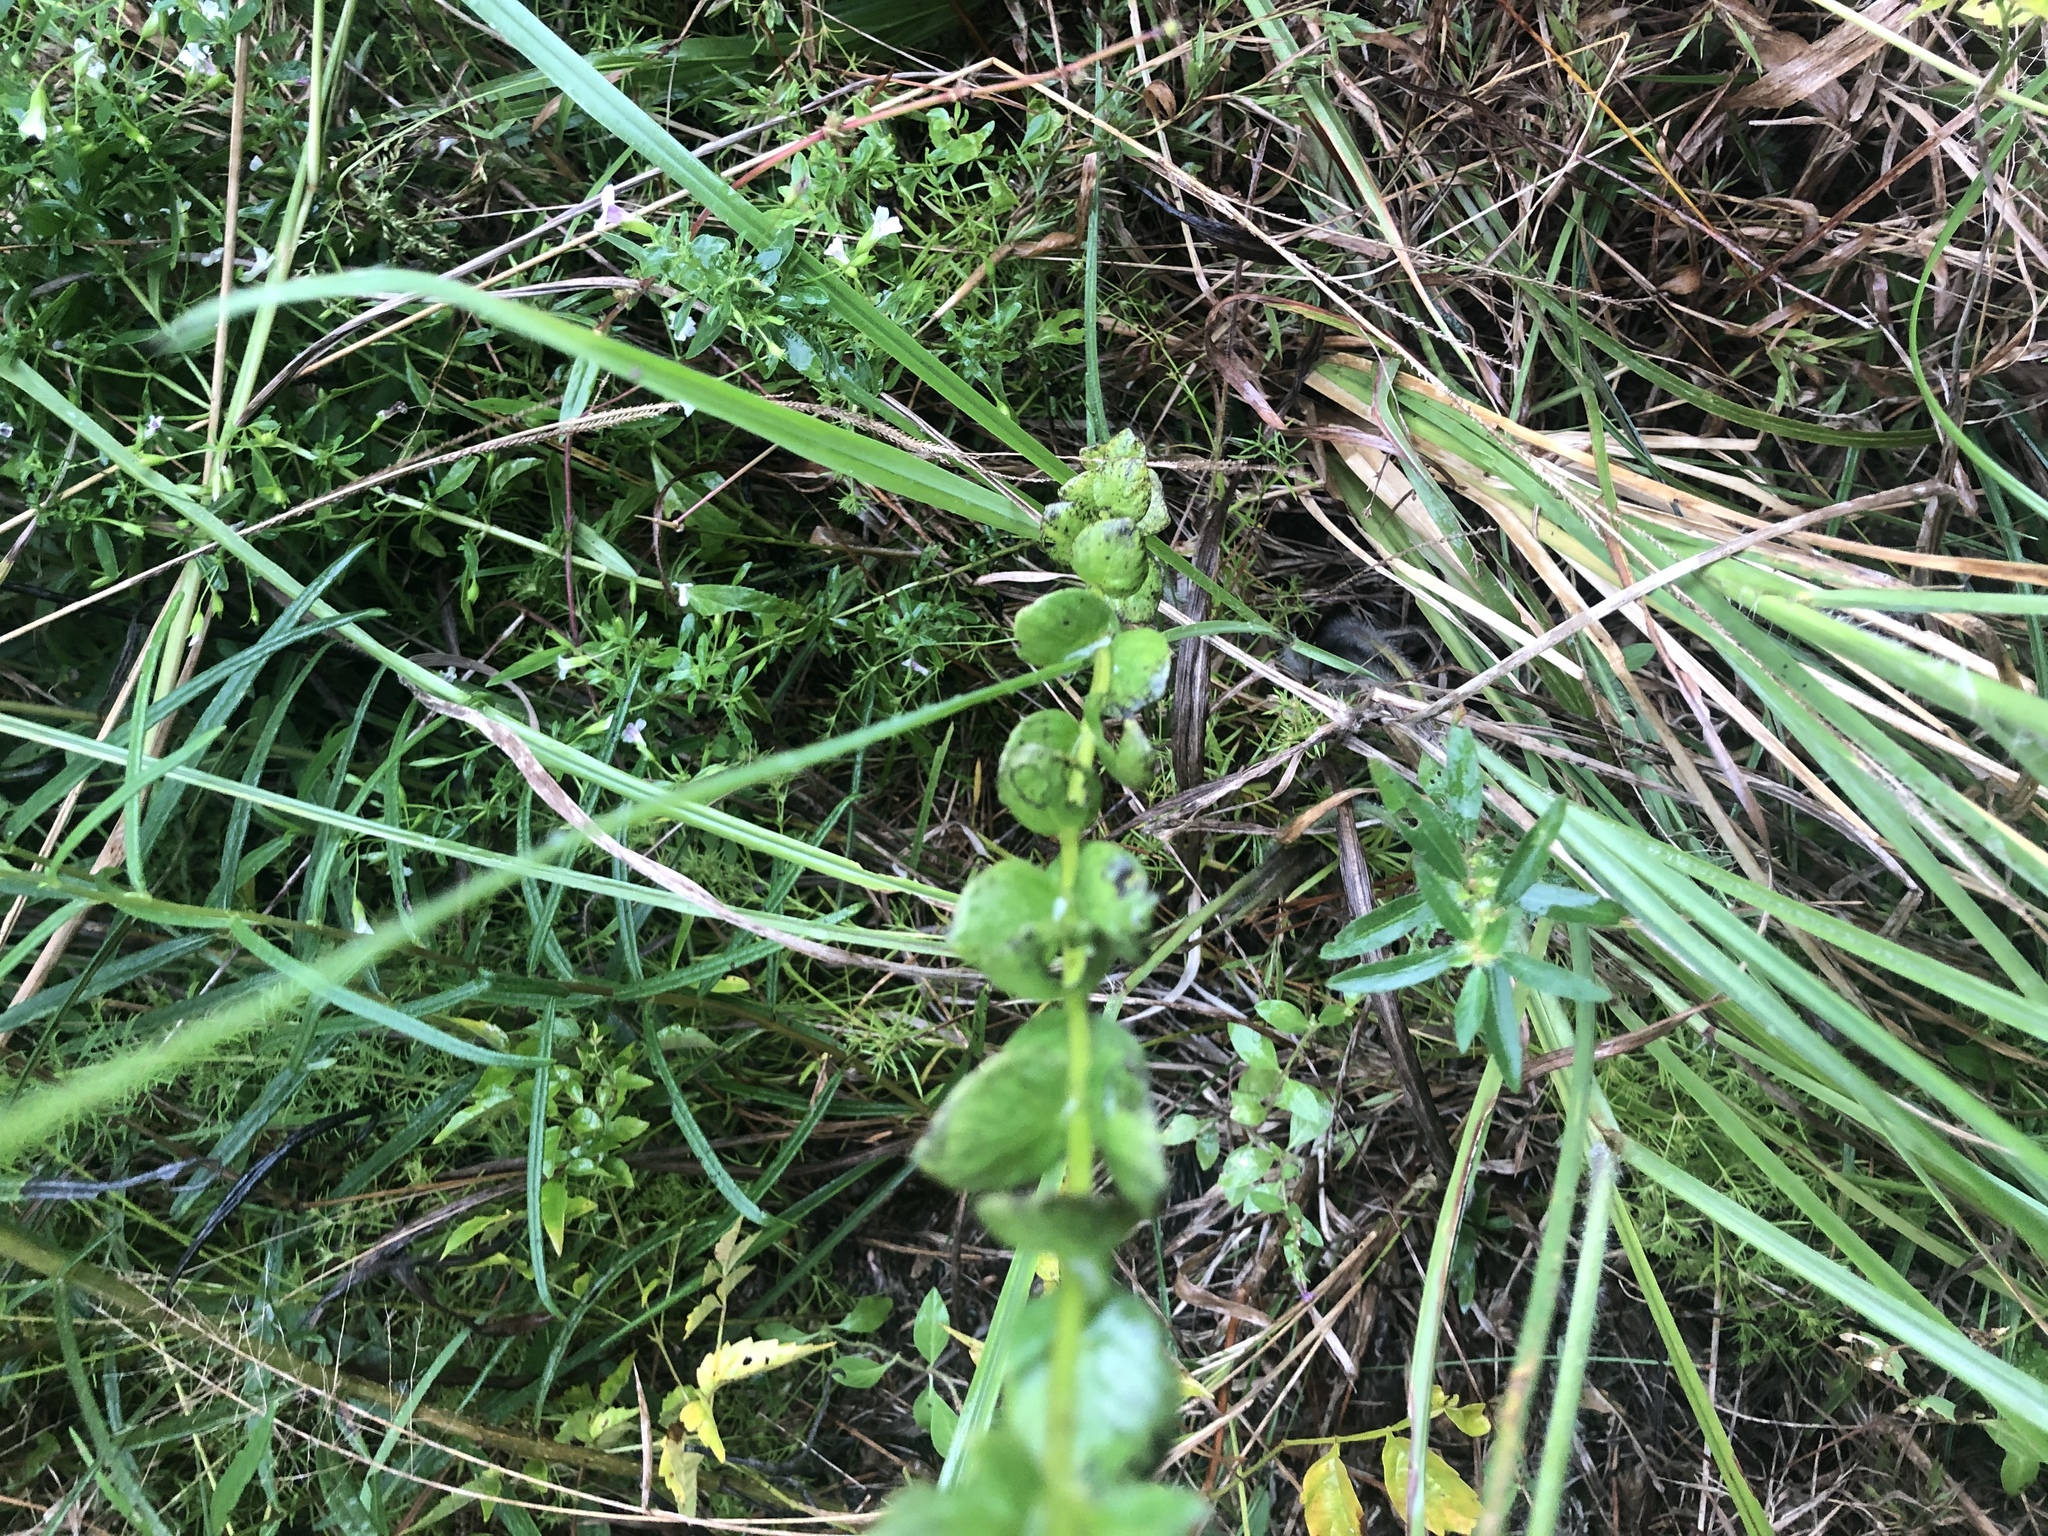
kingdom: Plantae
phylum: Tracheophyta
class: Magnoliopsida
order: Gentianales
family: Loganiaceae
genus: Mitreola
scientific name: Mitreola sessilifolia
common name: Swamp hornpod
